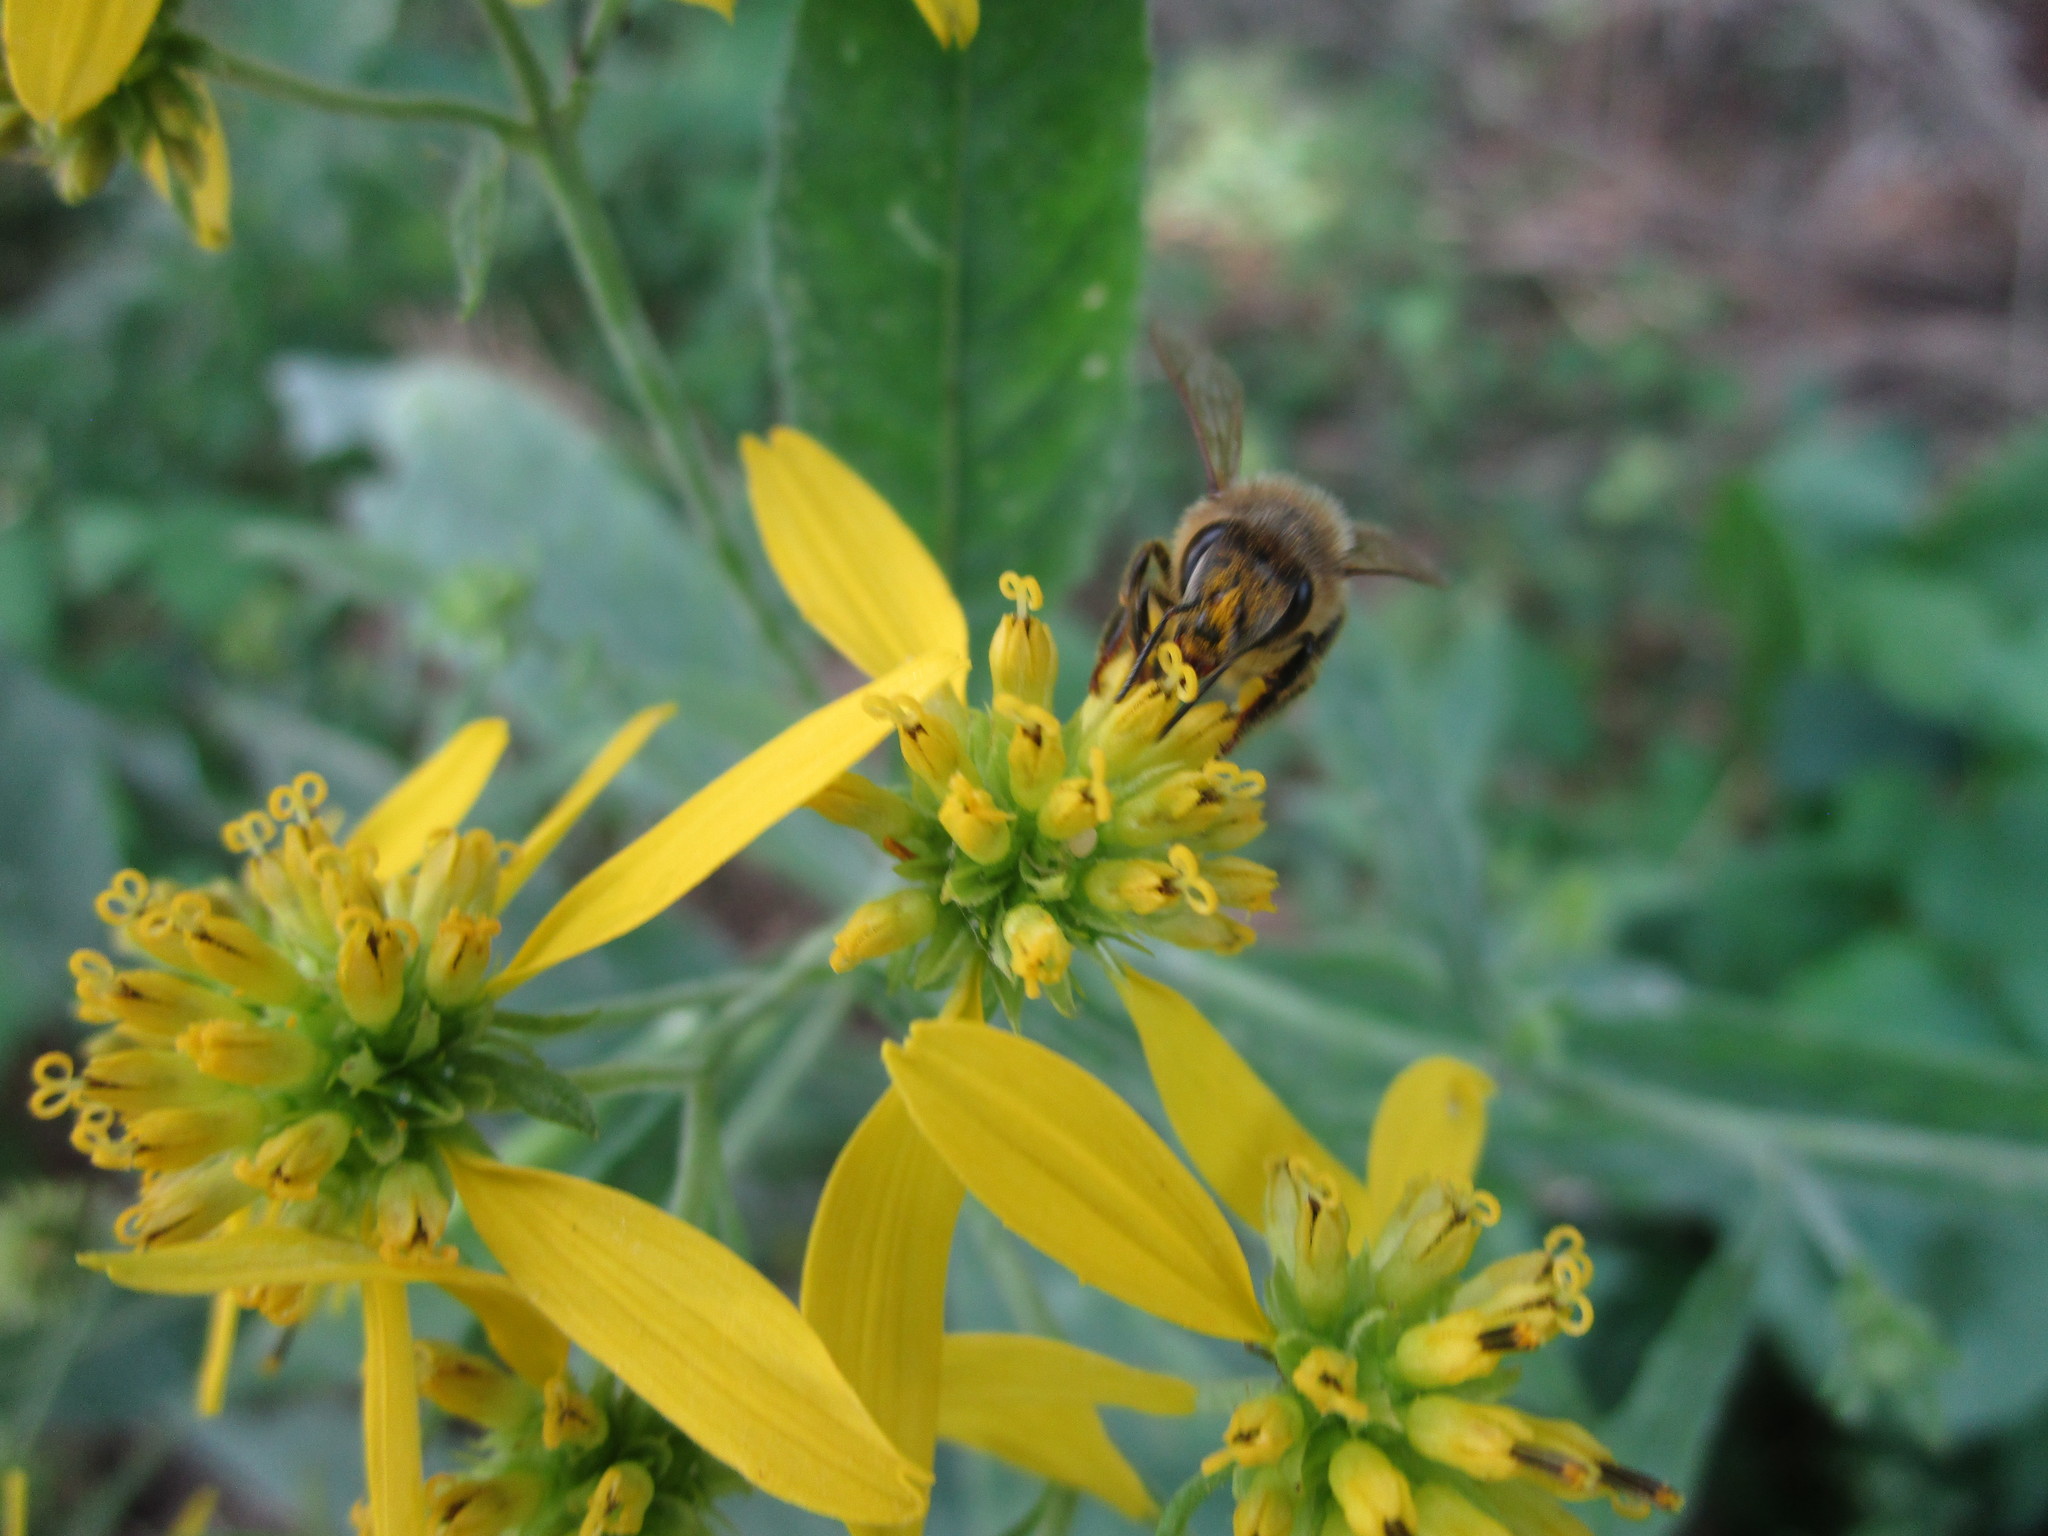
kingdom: Animalia
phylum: Arthropoda
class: Insecta
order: Hymenoptera
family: Apidae
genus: Apis
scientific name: Apis mellifera
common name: Honey bee
